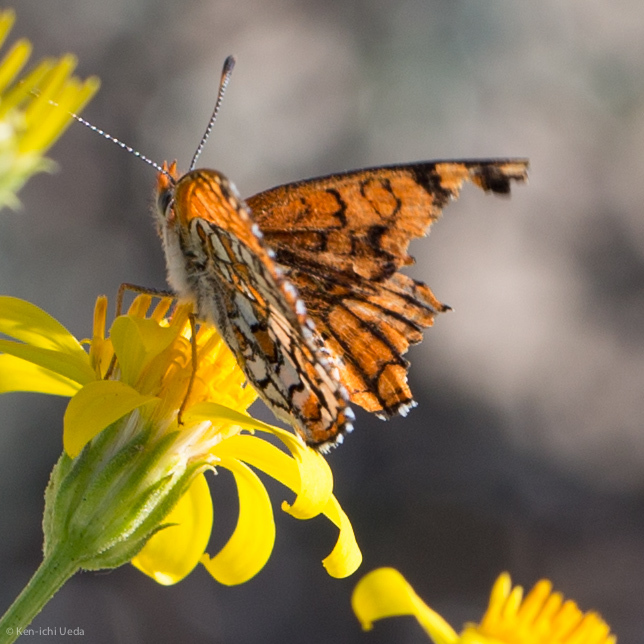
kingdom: Animalia
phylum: Arthropoda
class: Insecta
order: Lepidoptera
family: Nymphalidae
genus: Chlosyne
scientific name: Chlosyne acastus
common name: Sagebrush checkerspot
